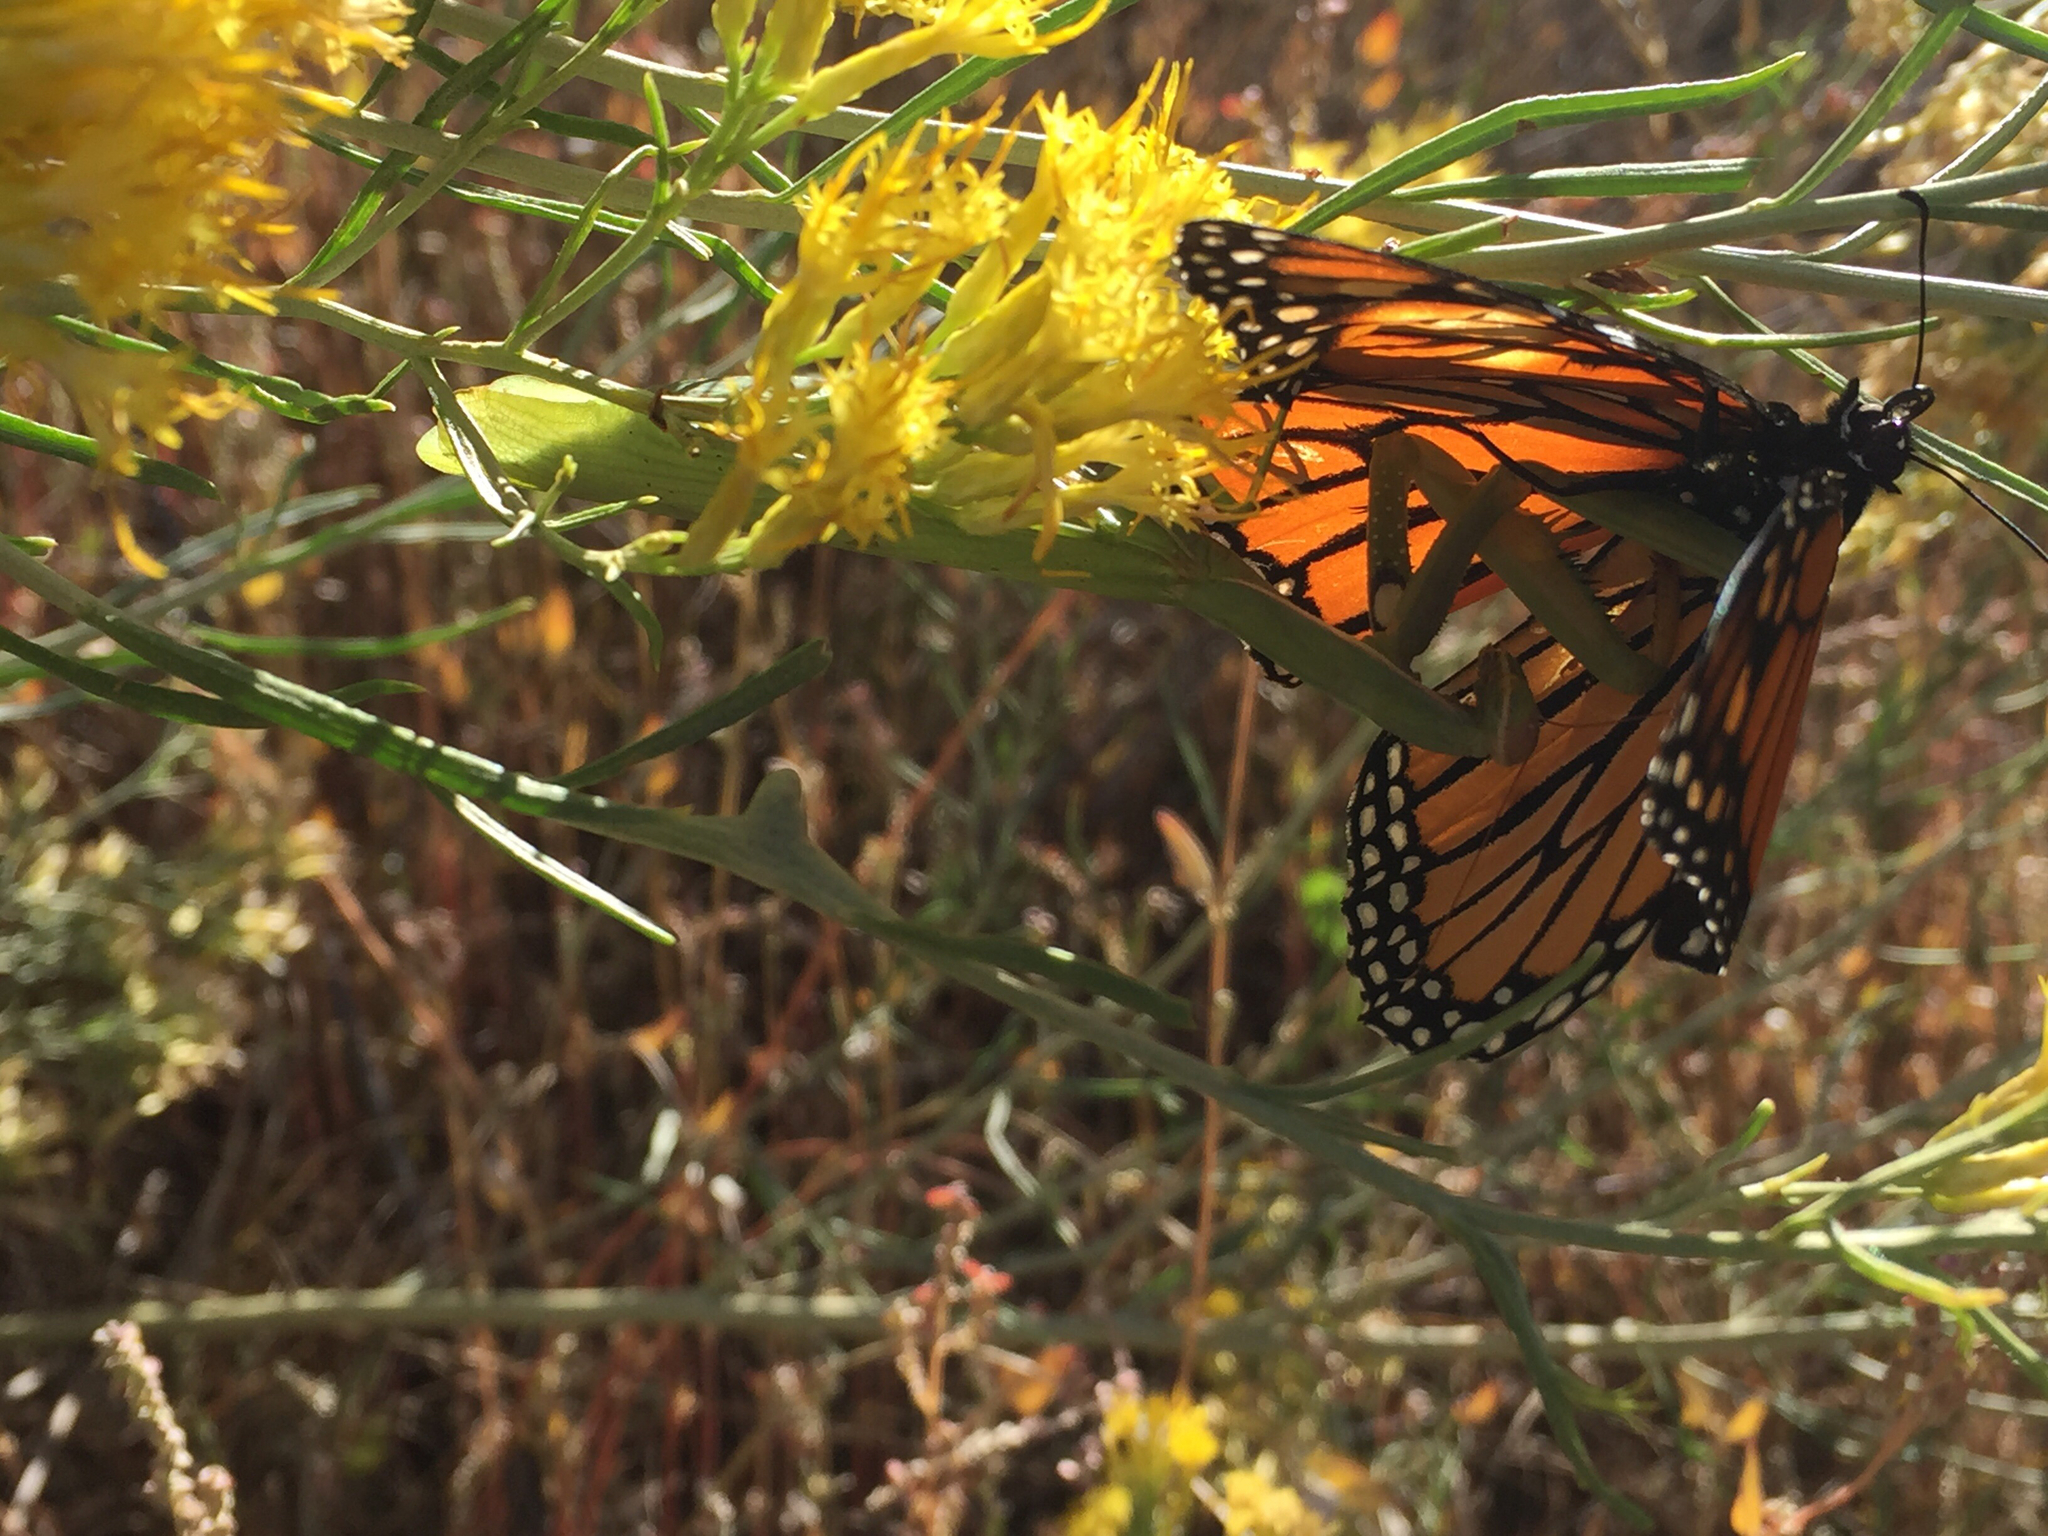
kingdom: Animalia
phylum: Arthropoda
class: Insecta
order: Mantodea
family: Mantidae
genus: Mantis
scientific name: Mantis religiosa
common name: Praying mantis
